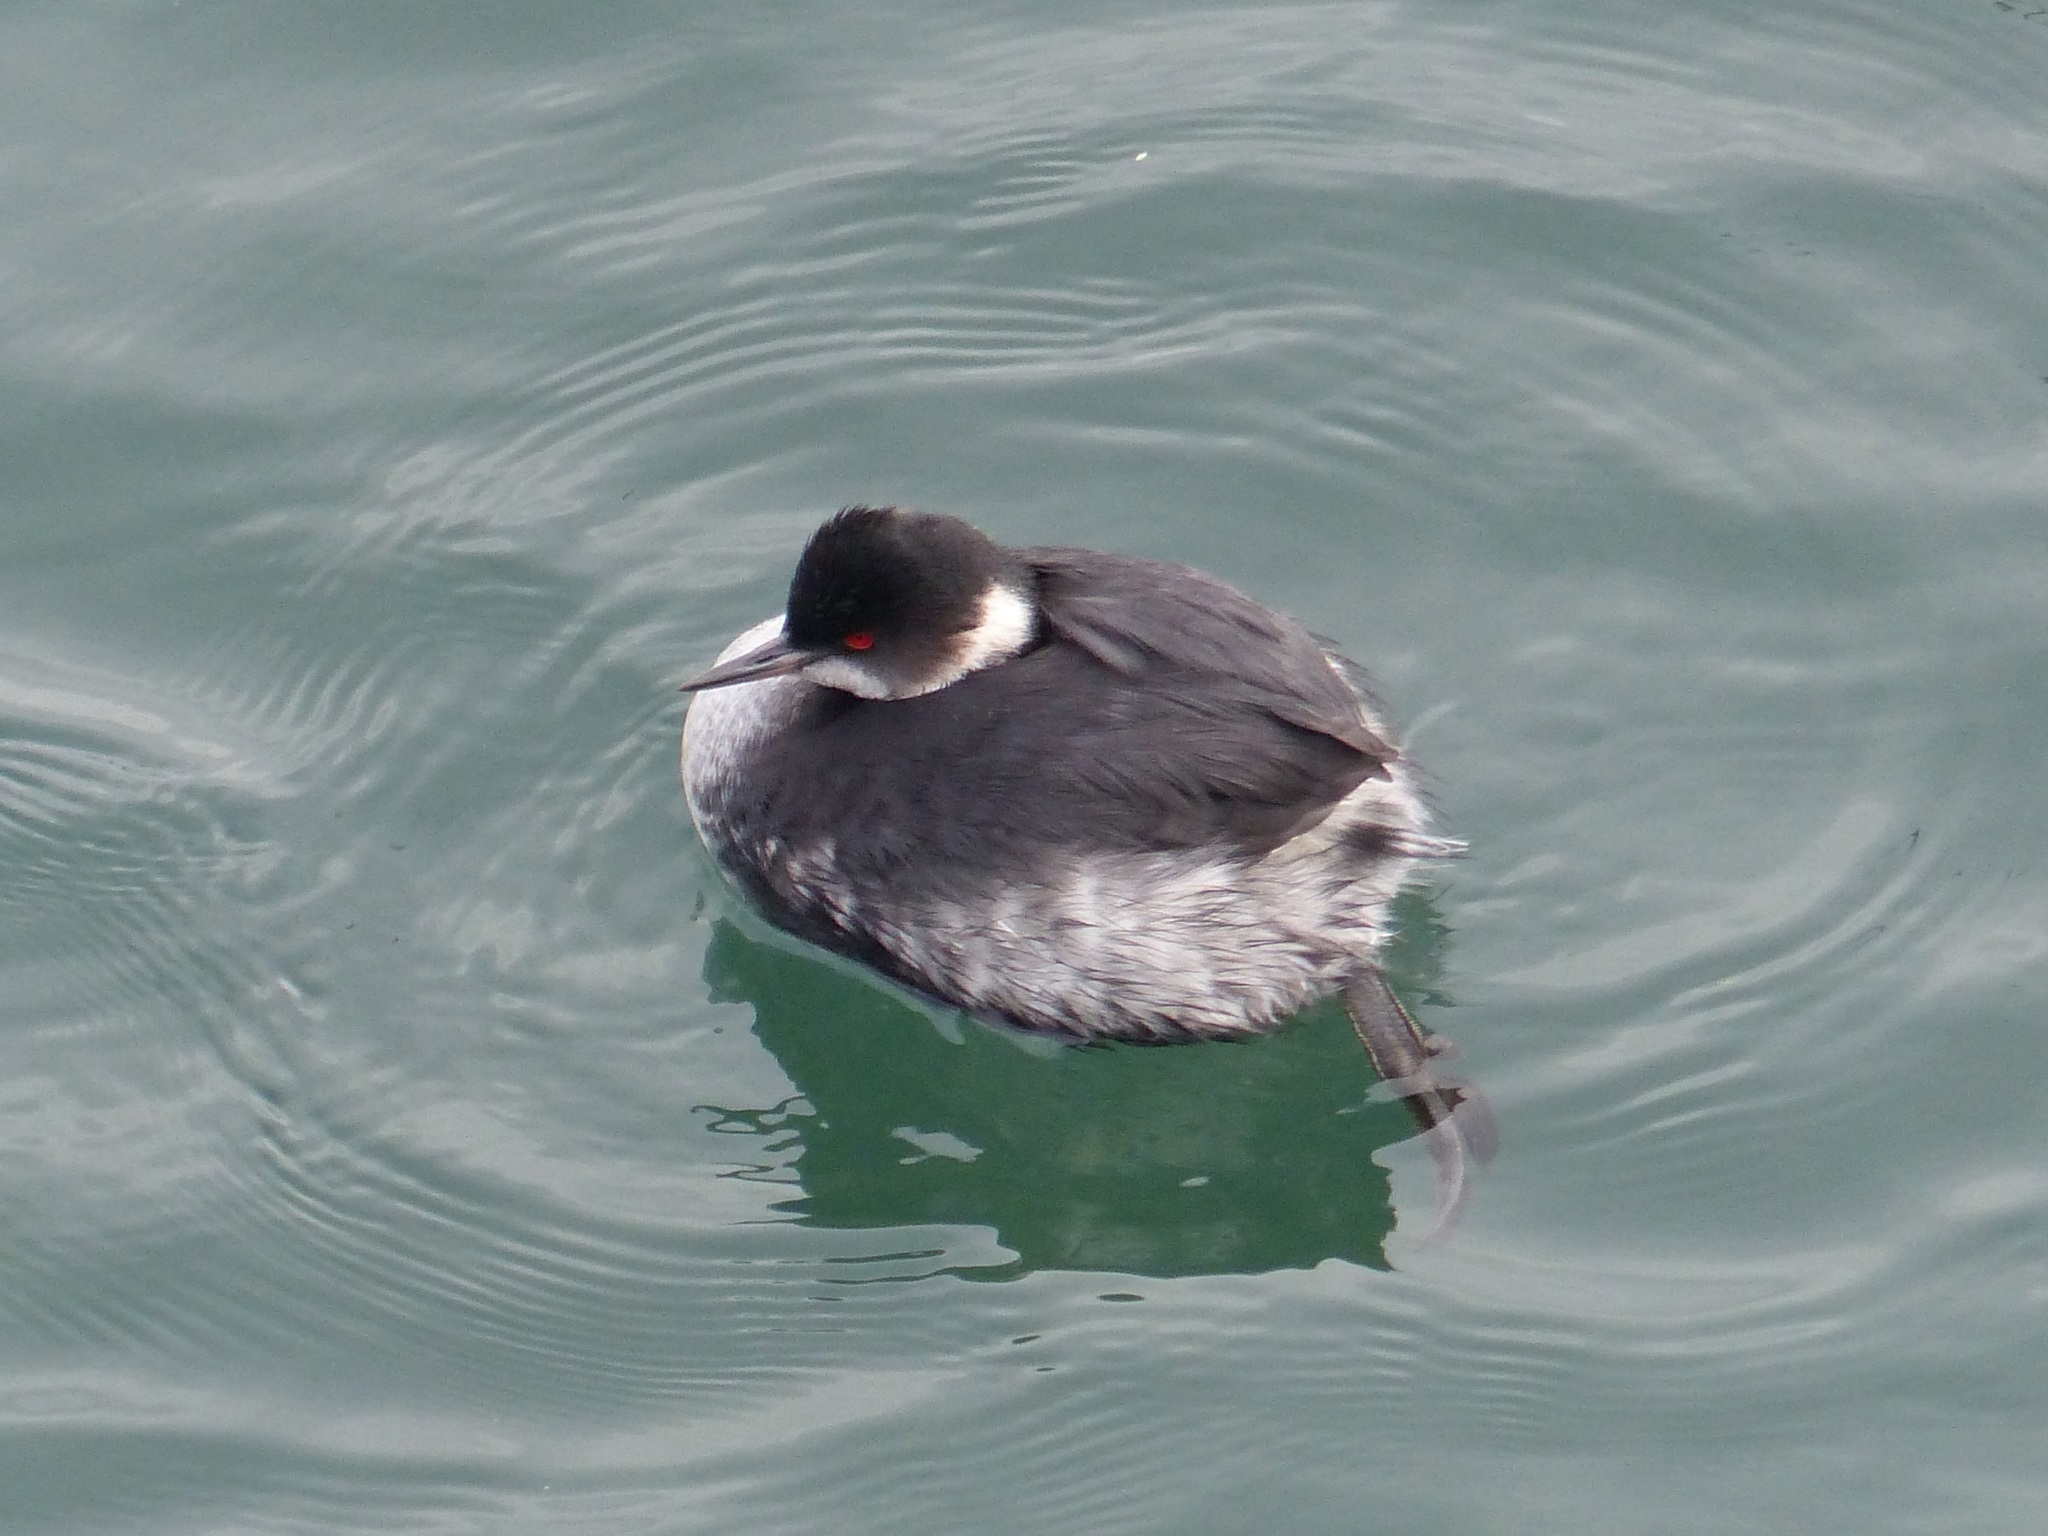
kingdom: Animalia
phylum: Chordata
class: Aves
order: Podicipediformes
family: Podicipedidae
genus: Podiceps
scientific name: Podiceps nigricollis
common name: Black-necked grebe
